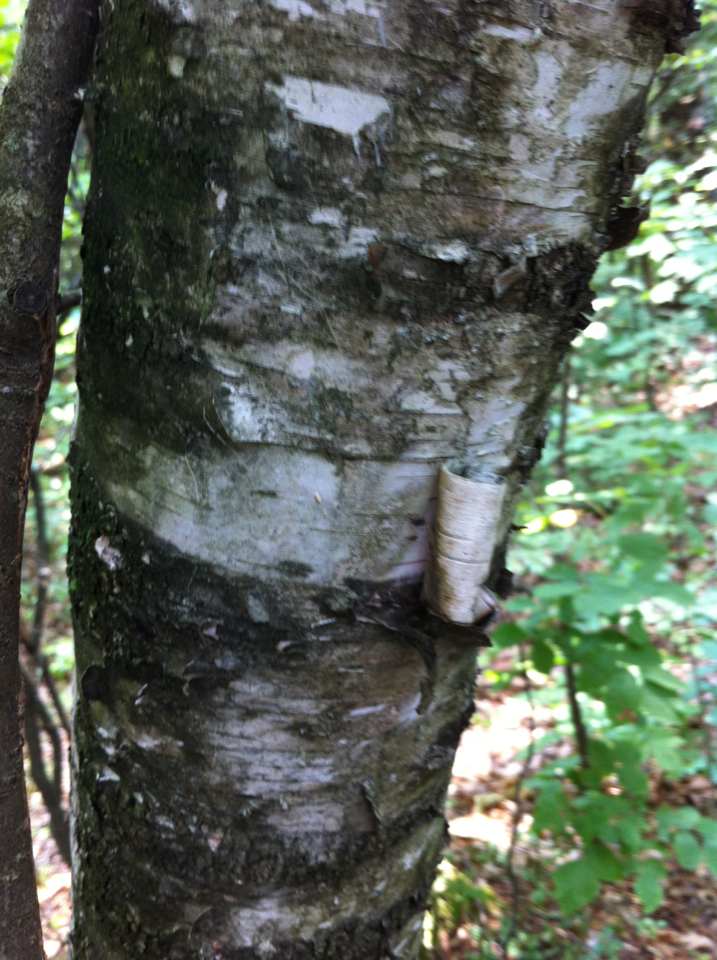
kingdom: Plantae
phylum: Tracheophyta
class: Magnoliopsida
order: Fagales
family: Betulaceae
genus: Betula
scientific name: Betula papyrifera
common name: Paper birch
